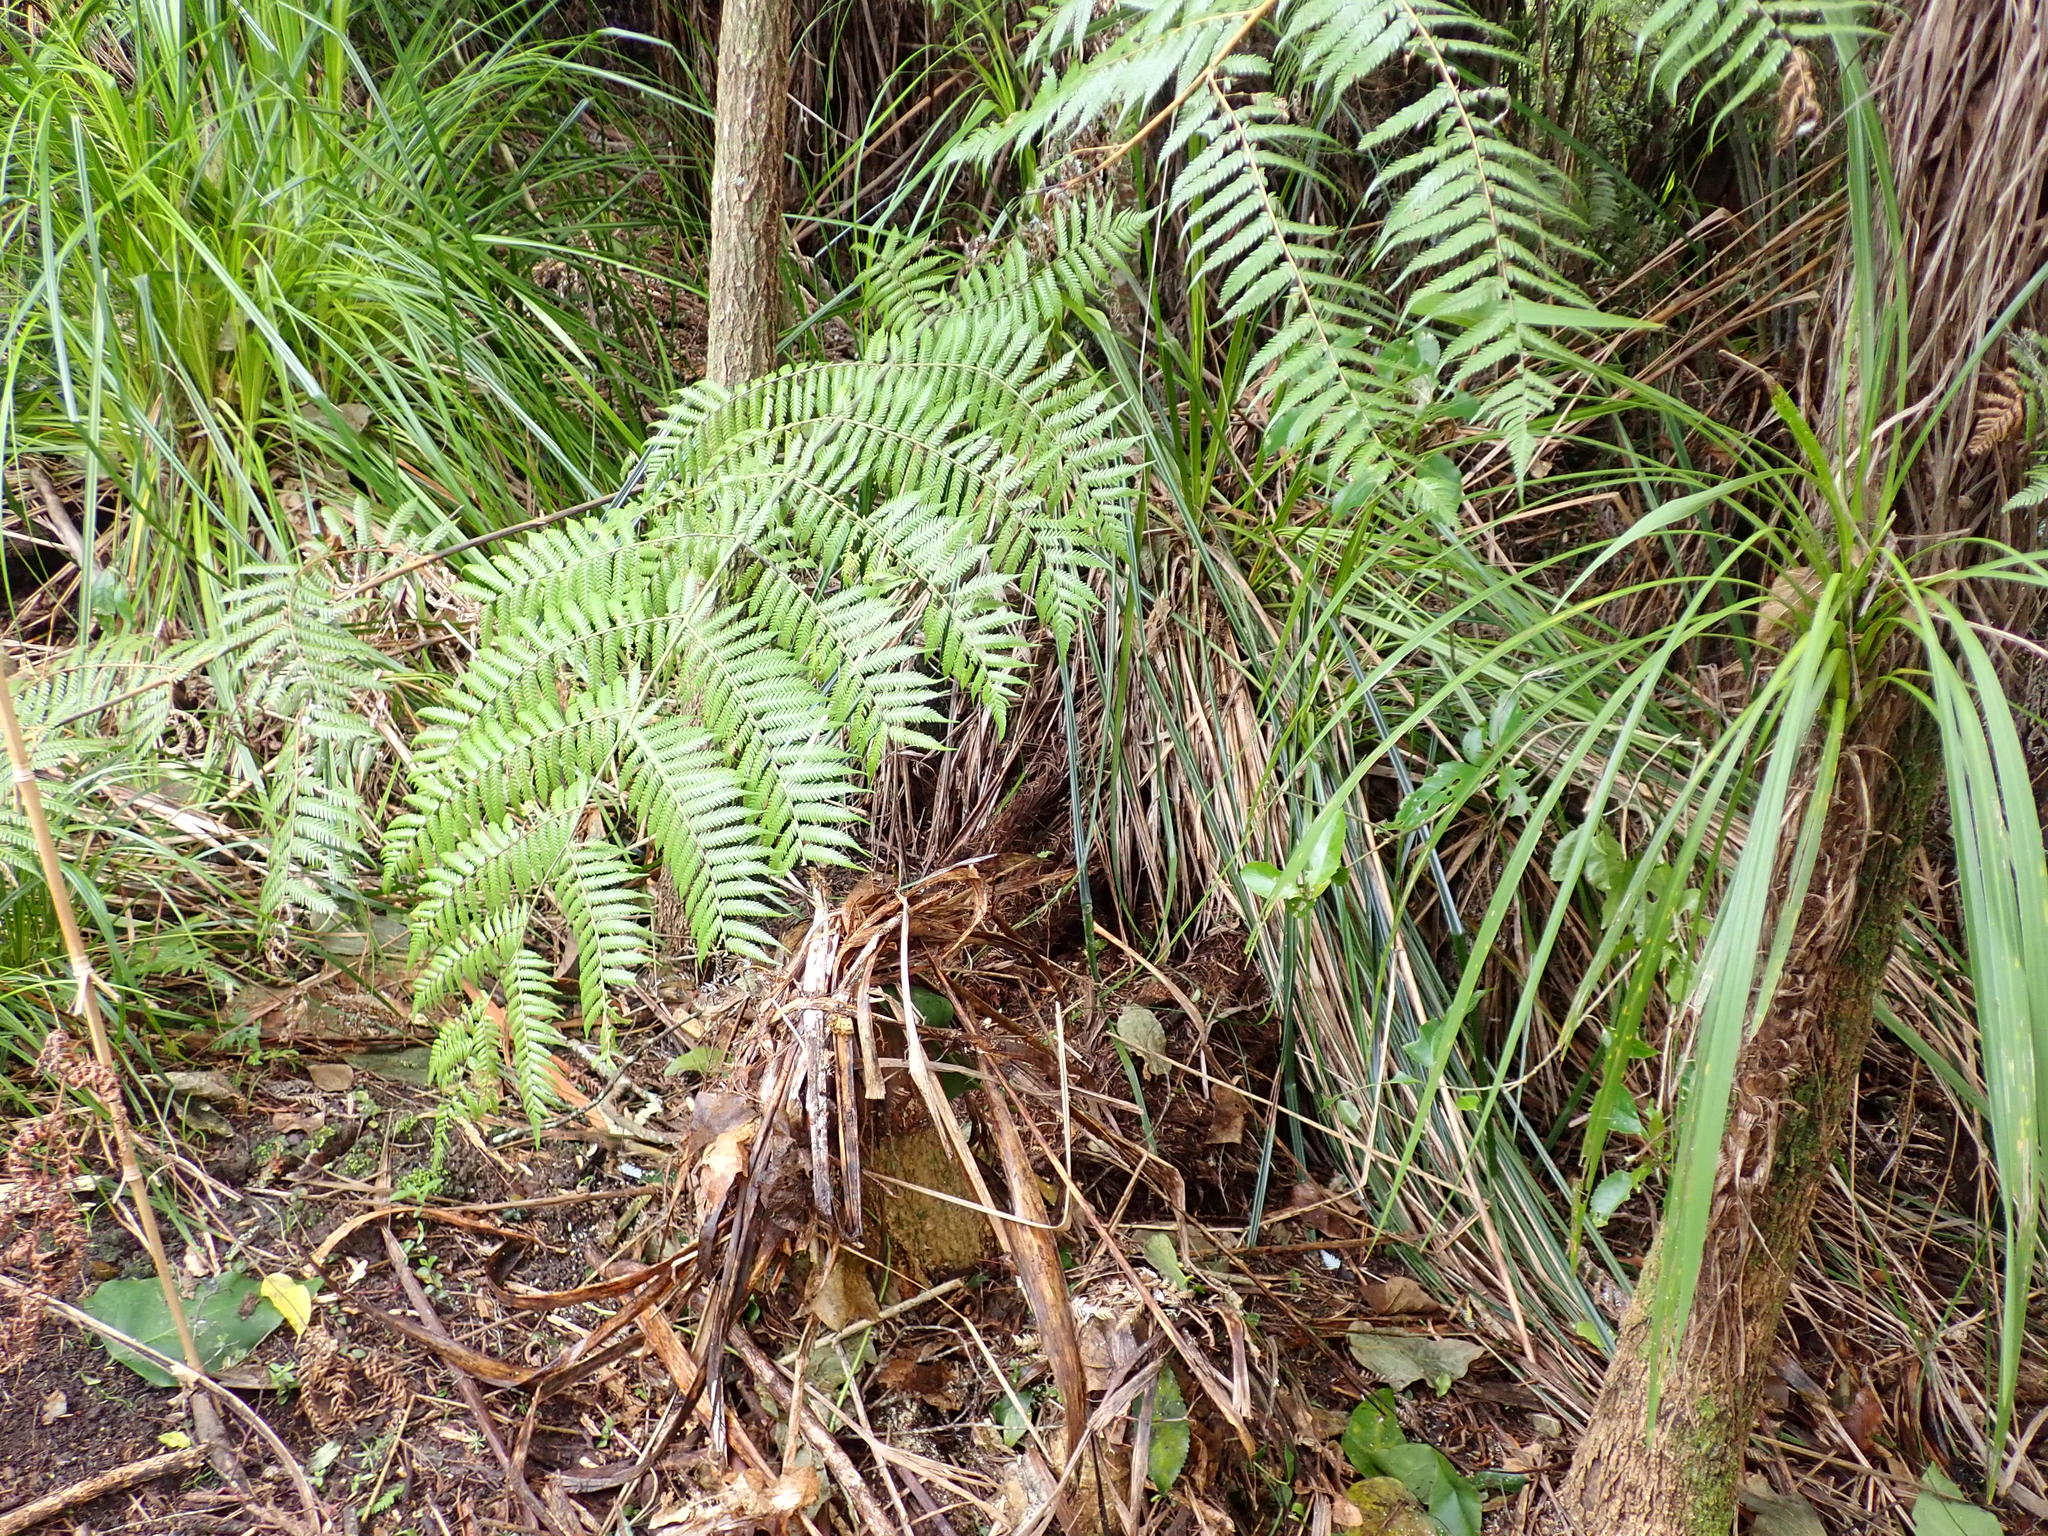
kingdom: Plantae
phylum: Tracheophyta
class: Polypodiopsida
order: Cyatheales
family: Cyatheaceae
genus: Alsophila
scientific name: Alsophila dealbata
